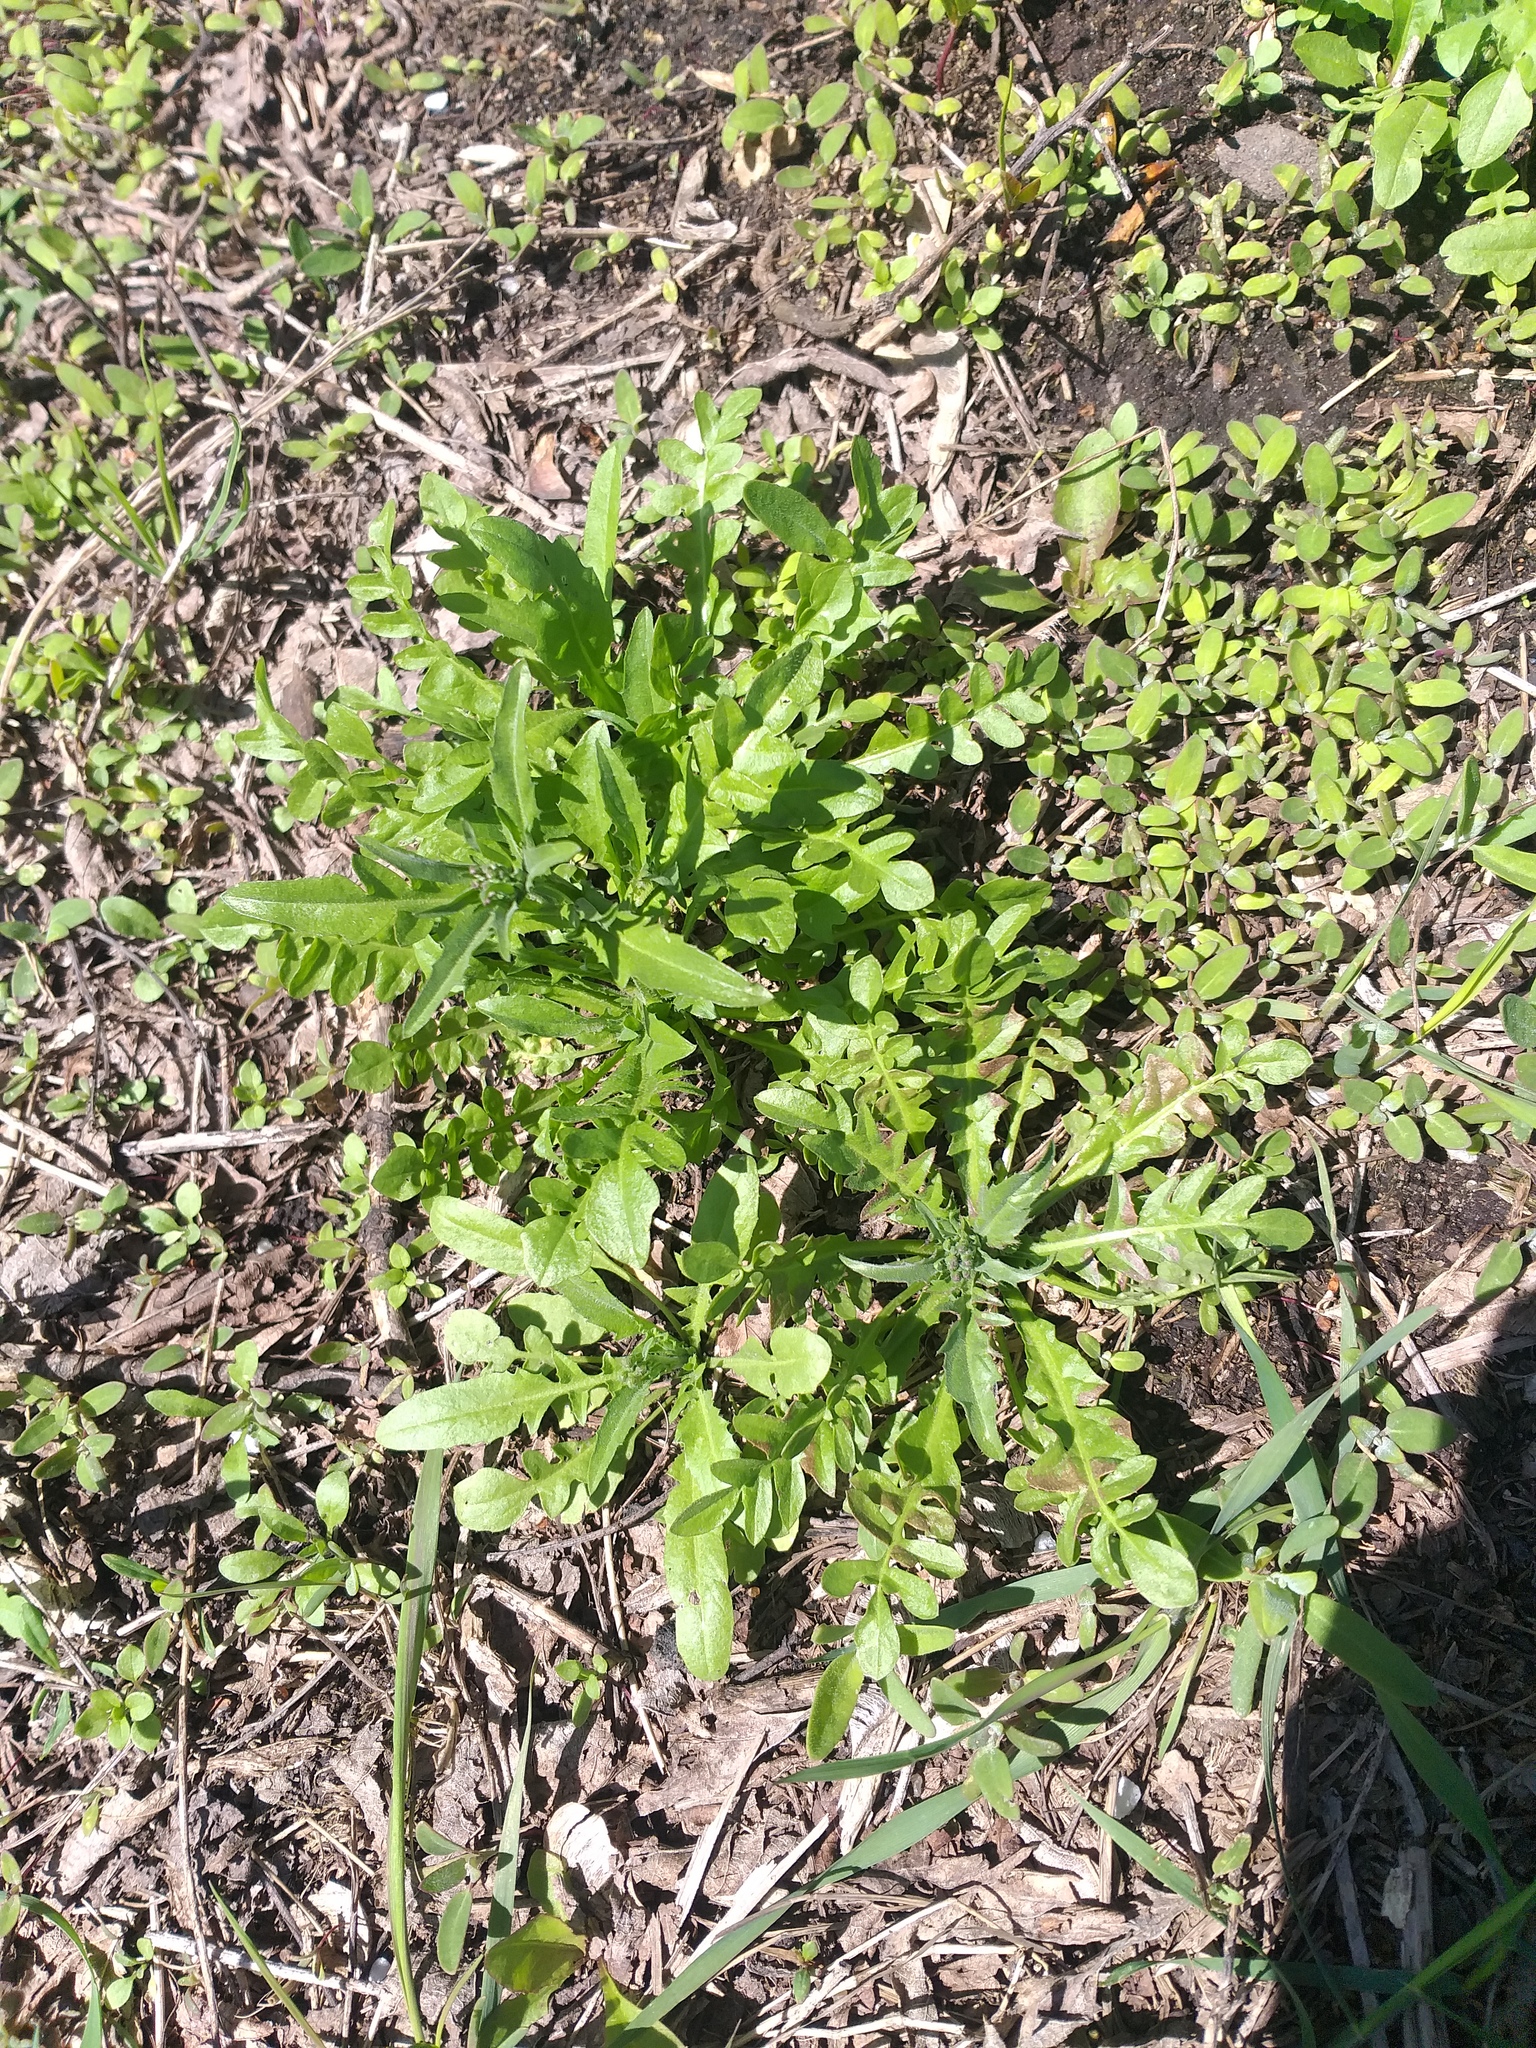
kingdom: Plantae
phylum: Tracheophyta
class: Magnoliopsida
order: Brassicales
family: Brassicaceae
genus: Capsella
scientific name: Capsella bursa-pastoris
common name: Shepherd's purse
